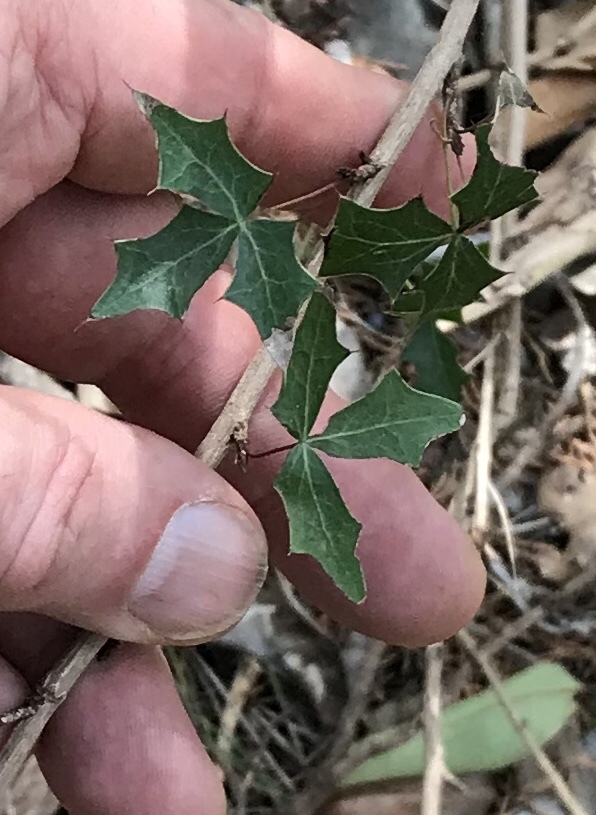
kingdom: Plantae
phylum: Tracheophyta
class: Magnoliopsida
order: Ranunculales
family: Berberidaceae
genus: Alloberberis
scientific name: Alloberberis trifoliolata
